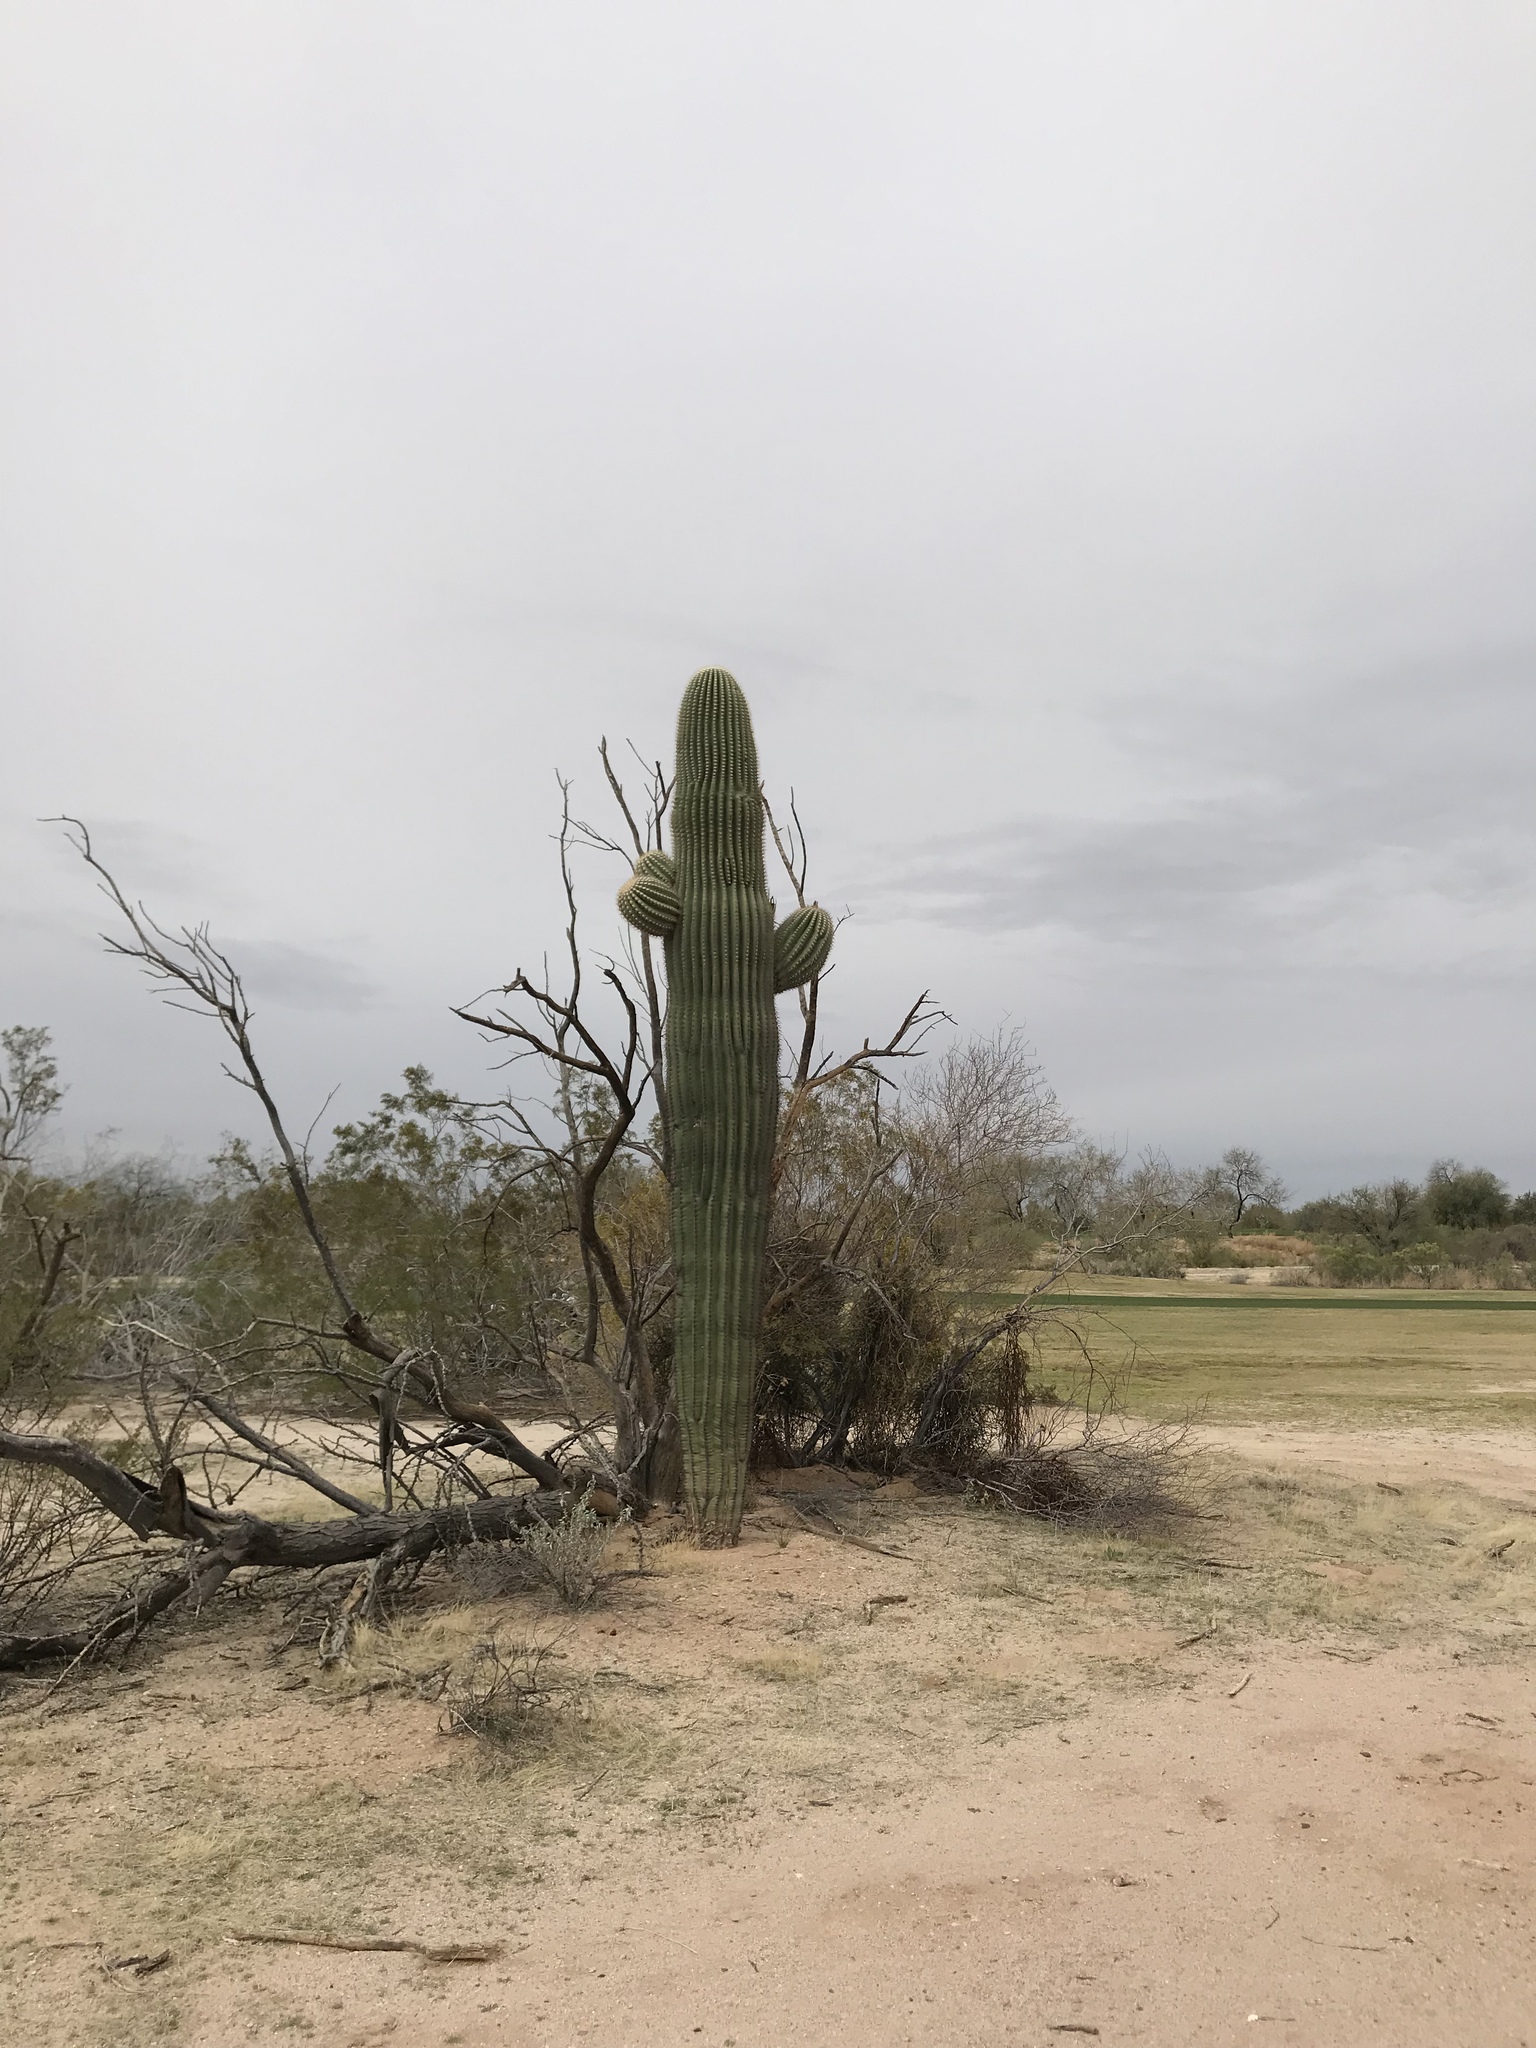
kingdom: Plantae
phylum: Tracheophyta
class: Magnoliopsida
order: Caryophyllales
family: Cactaceae
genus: Carnegiea
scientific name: Carnegiea gigantea
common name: Saguaro
